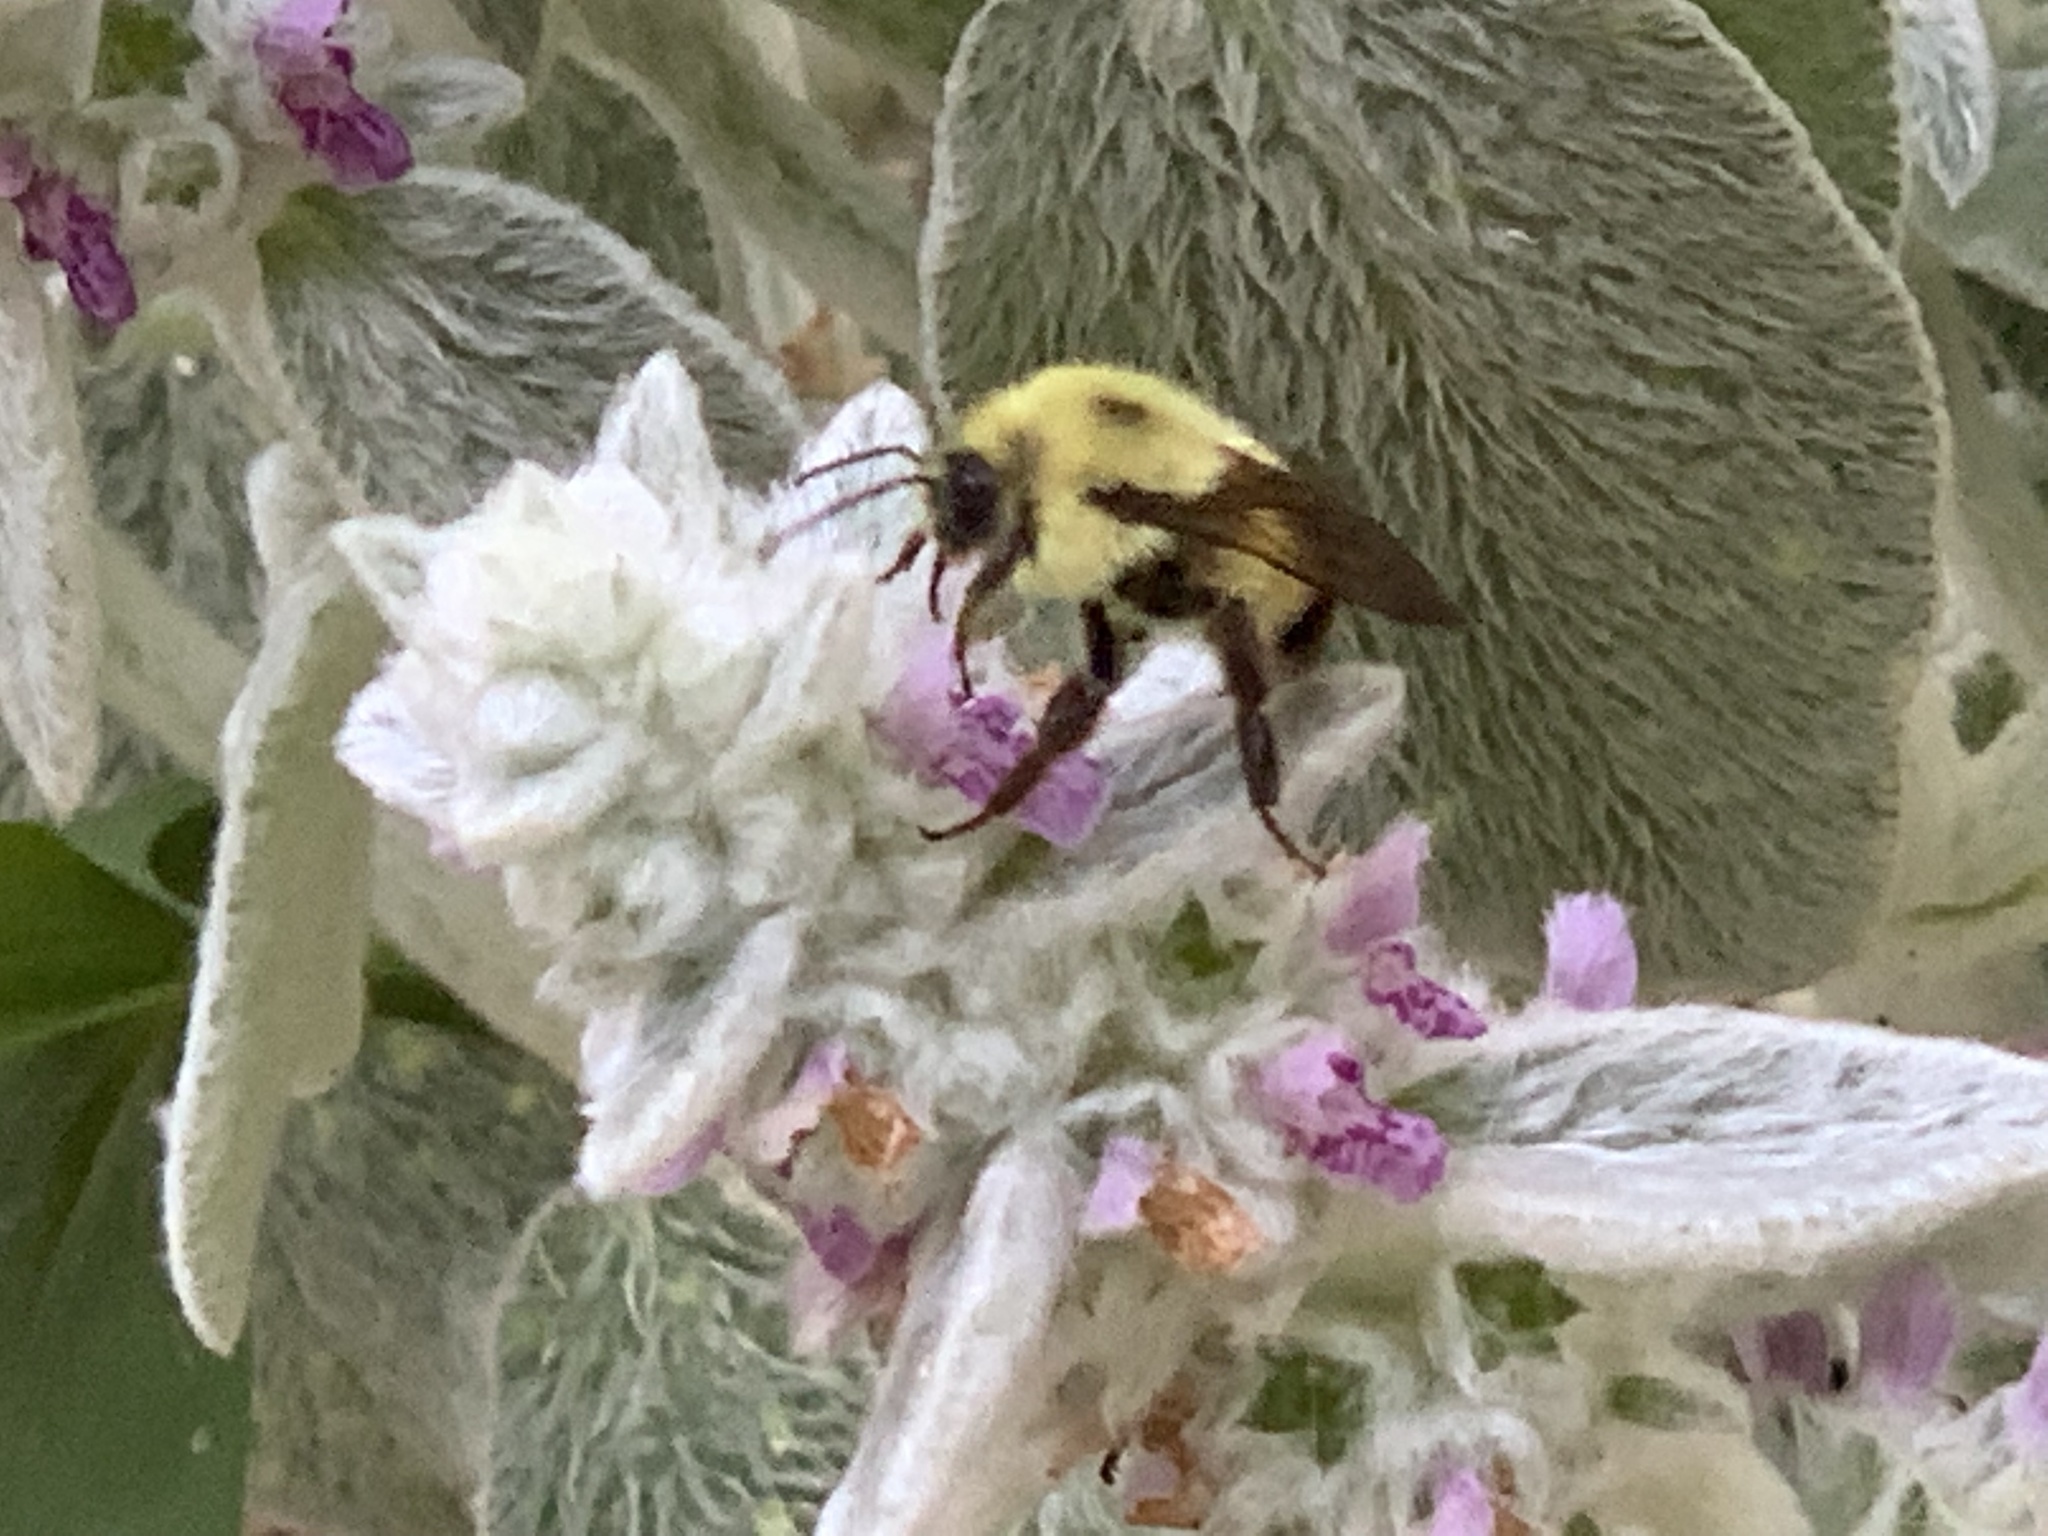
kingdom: Animalia
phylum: Arthropoda
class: Insecta
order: Hymenoptera
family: Apidae
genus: Bombus
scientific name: Bombus bimaculatus
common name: Two-spotted bumble bee
